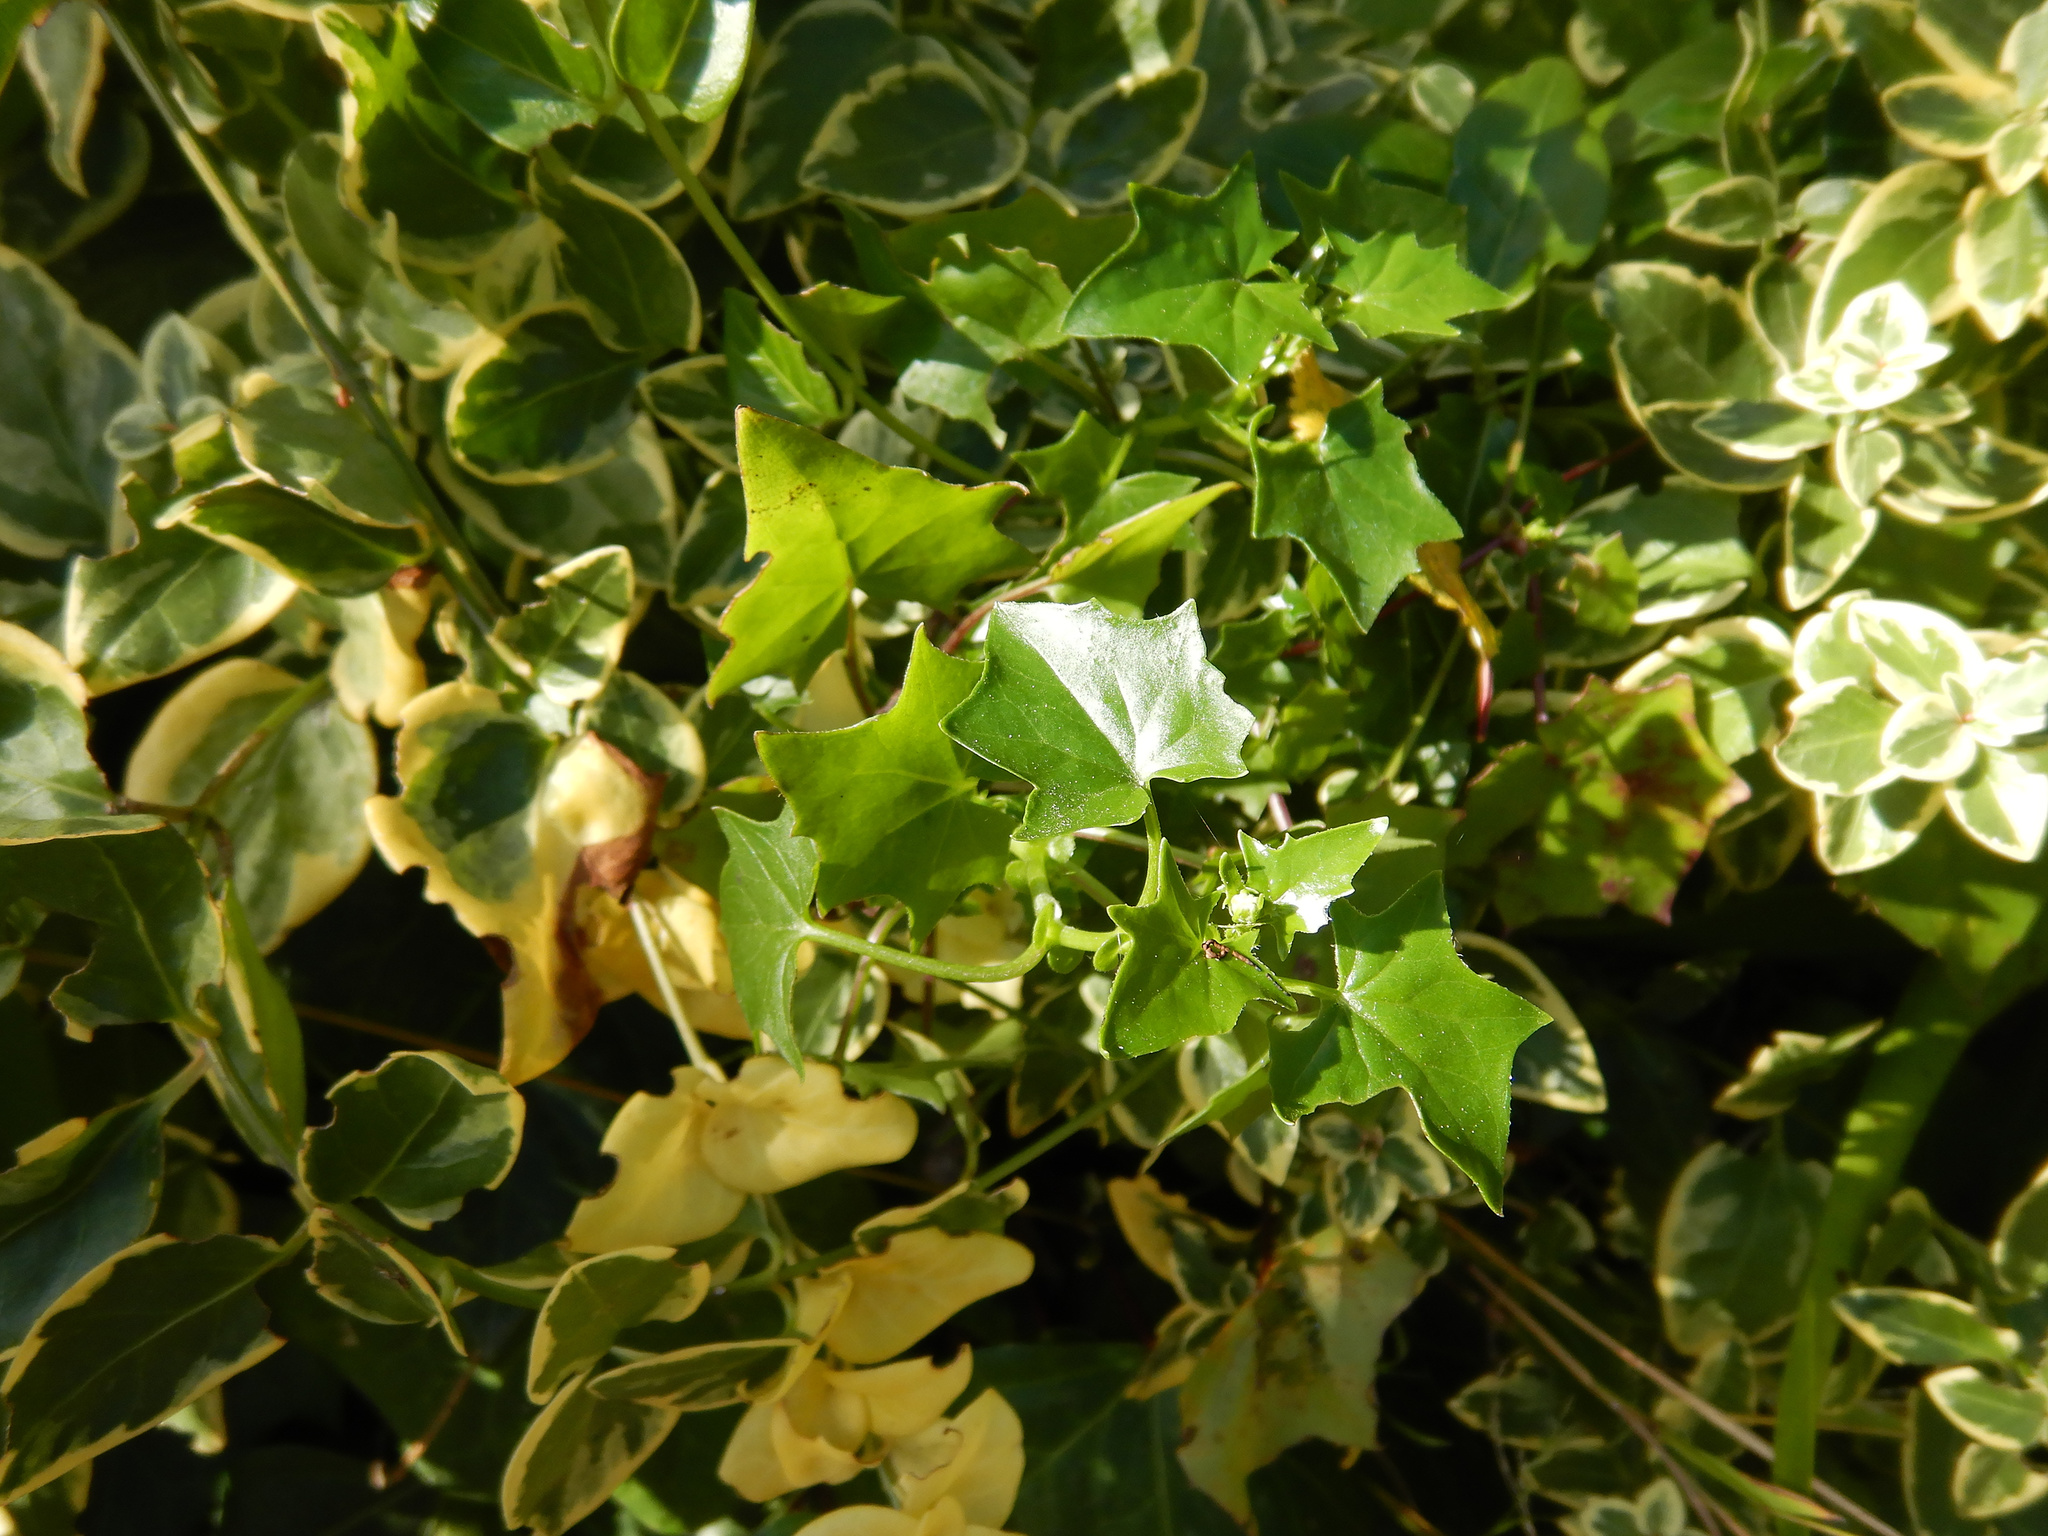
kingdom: Plantae
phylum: Tracheophyta
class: Magnoliopsida
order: Asterales
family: Asteraceae
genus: Delairea
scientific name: Delairea odorata
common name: Cape-ivy
